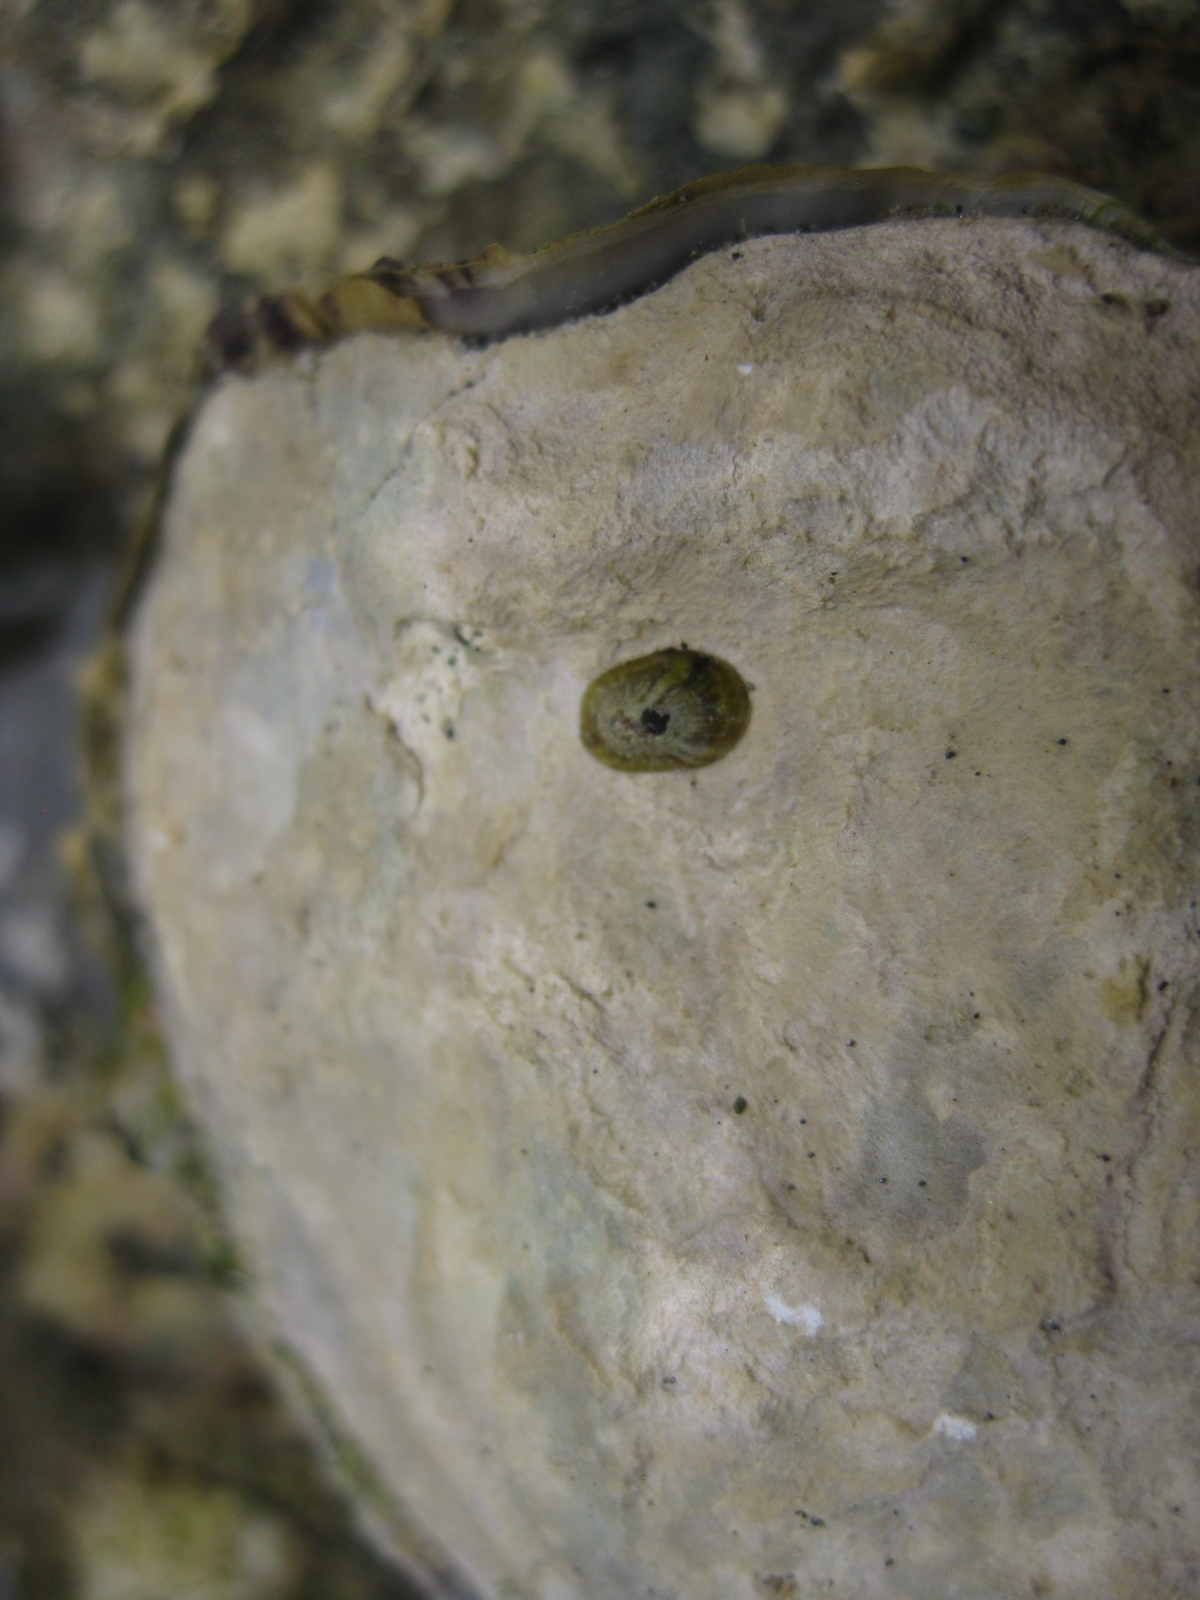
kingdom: Animalia
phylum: Mollusca
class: Gastropoda
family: Lottiidae
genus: Notoacmea
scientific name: Notoacmea parviconoidea
